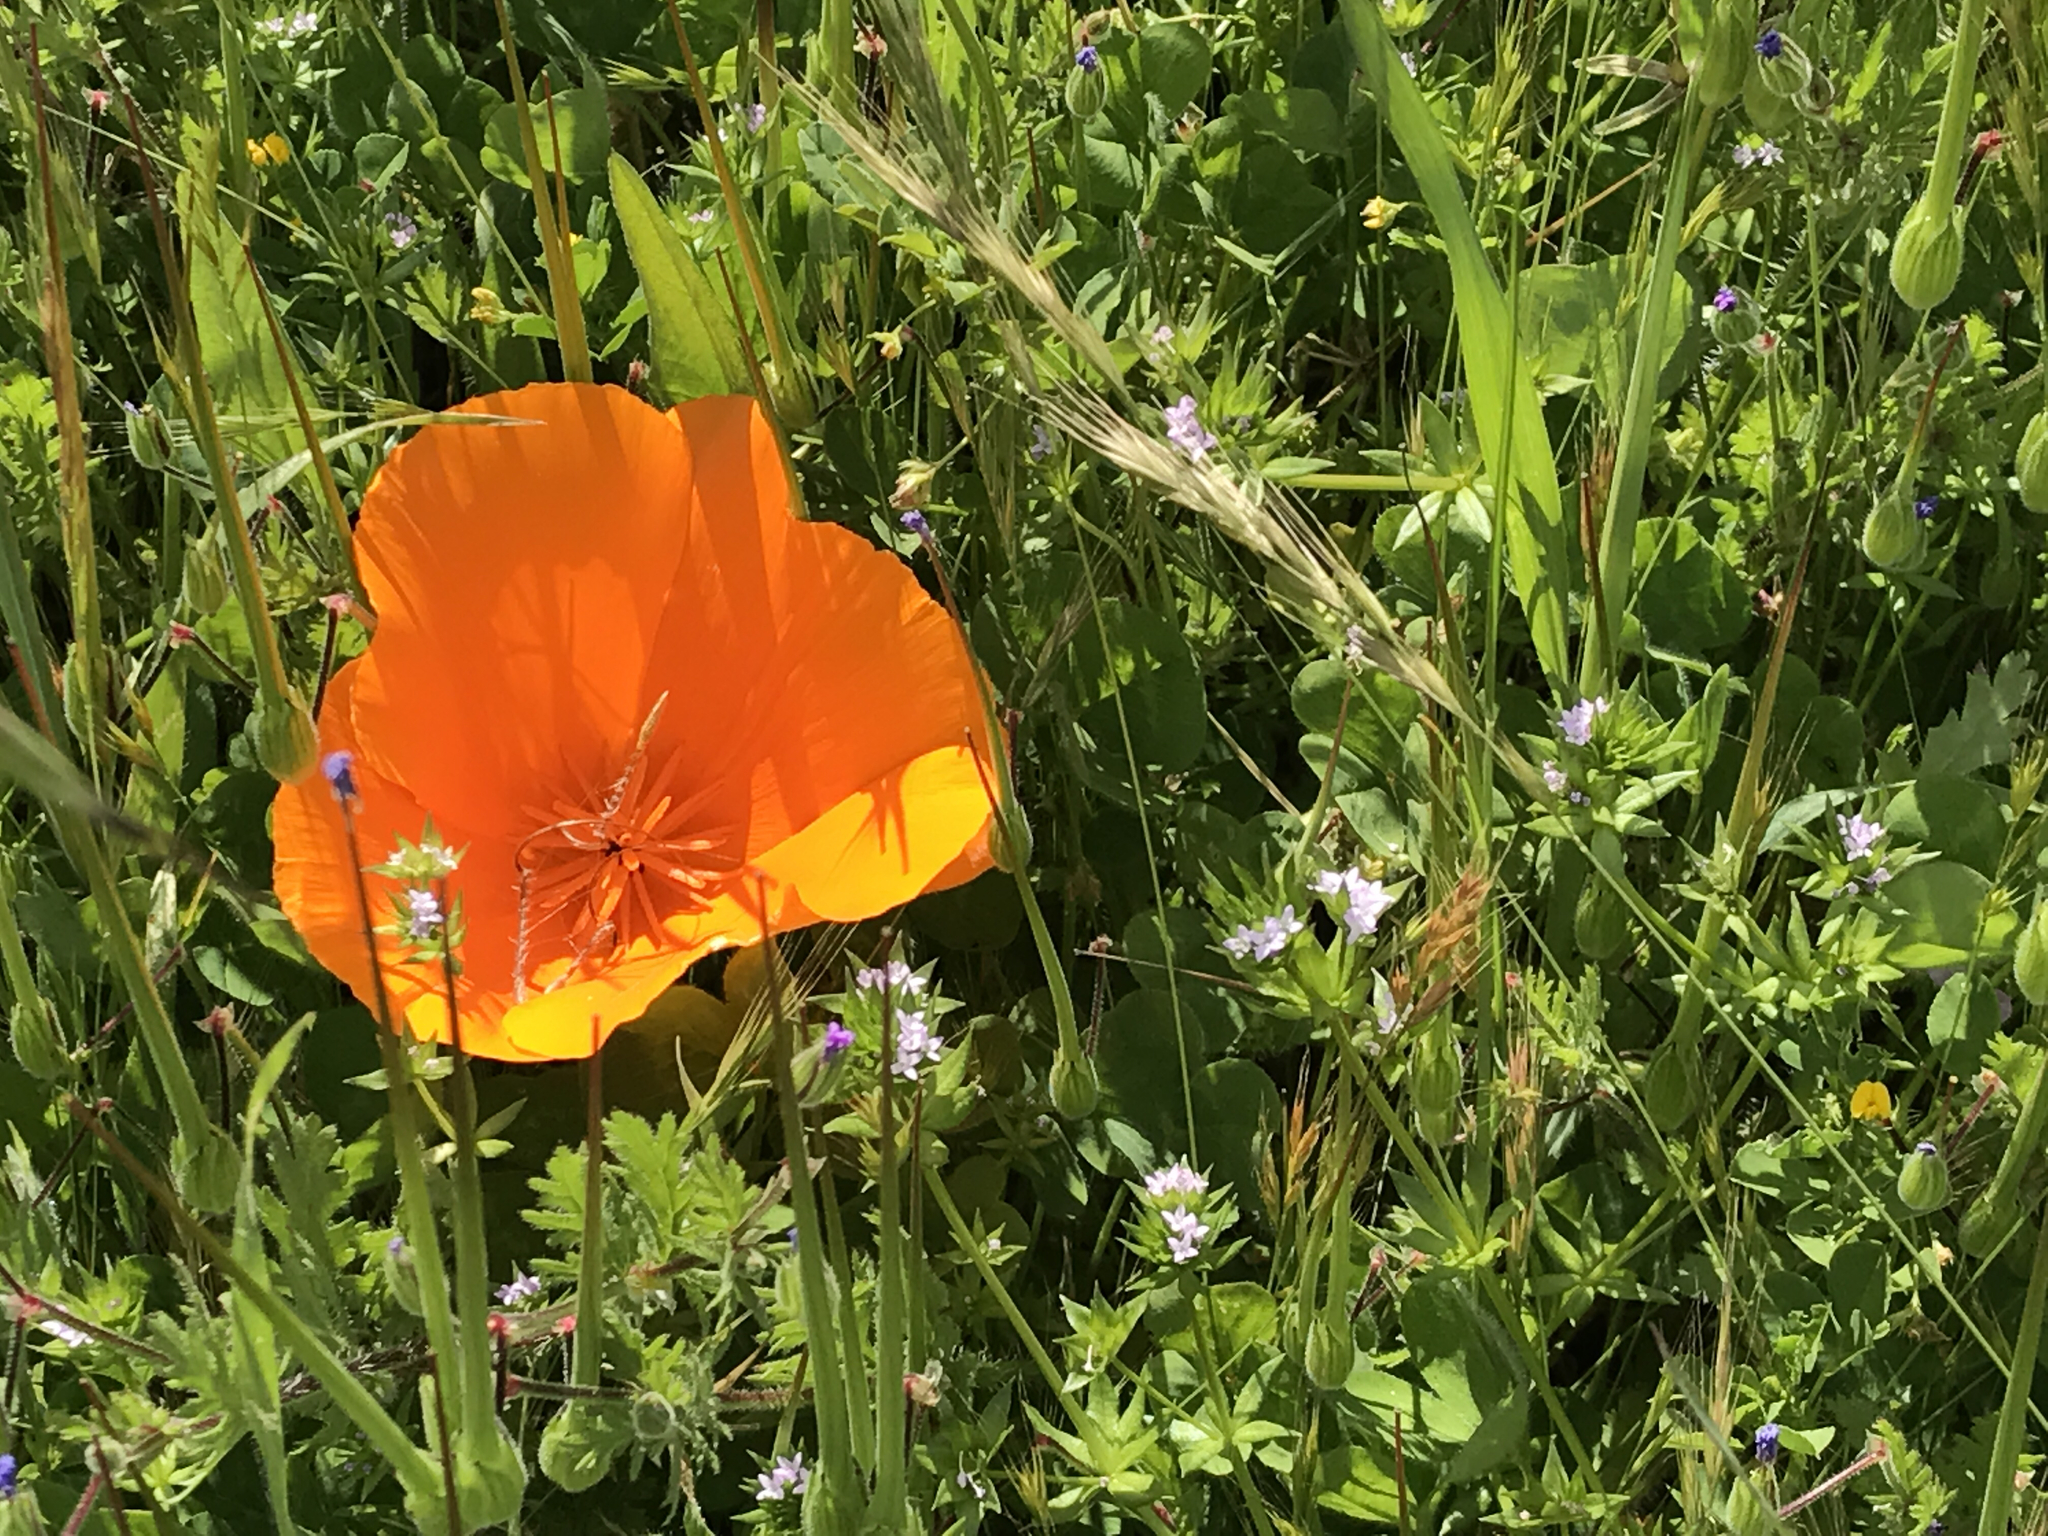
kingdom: Plantae
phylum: Tracheophyta
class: Magnoliopsida
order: Ranunculales
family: Papaveraceae
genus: Eschscholzia
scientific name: Eschscholzia californica
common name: California poppy
